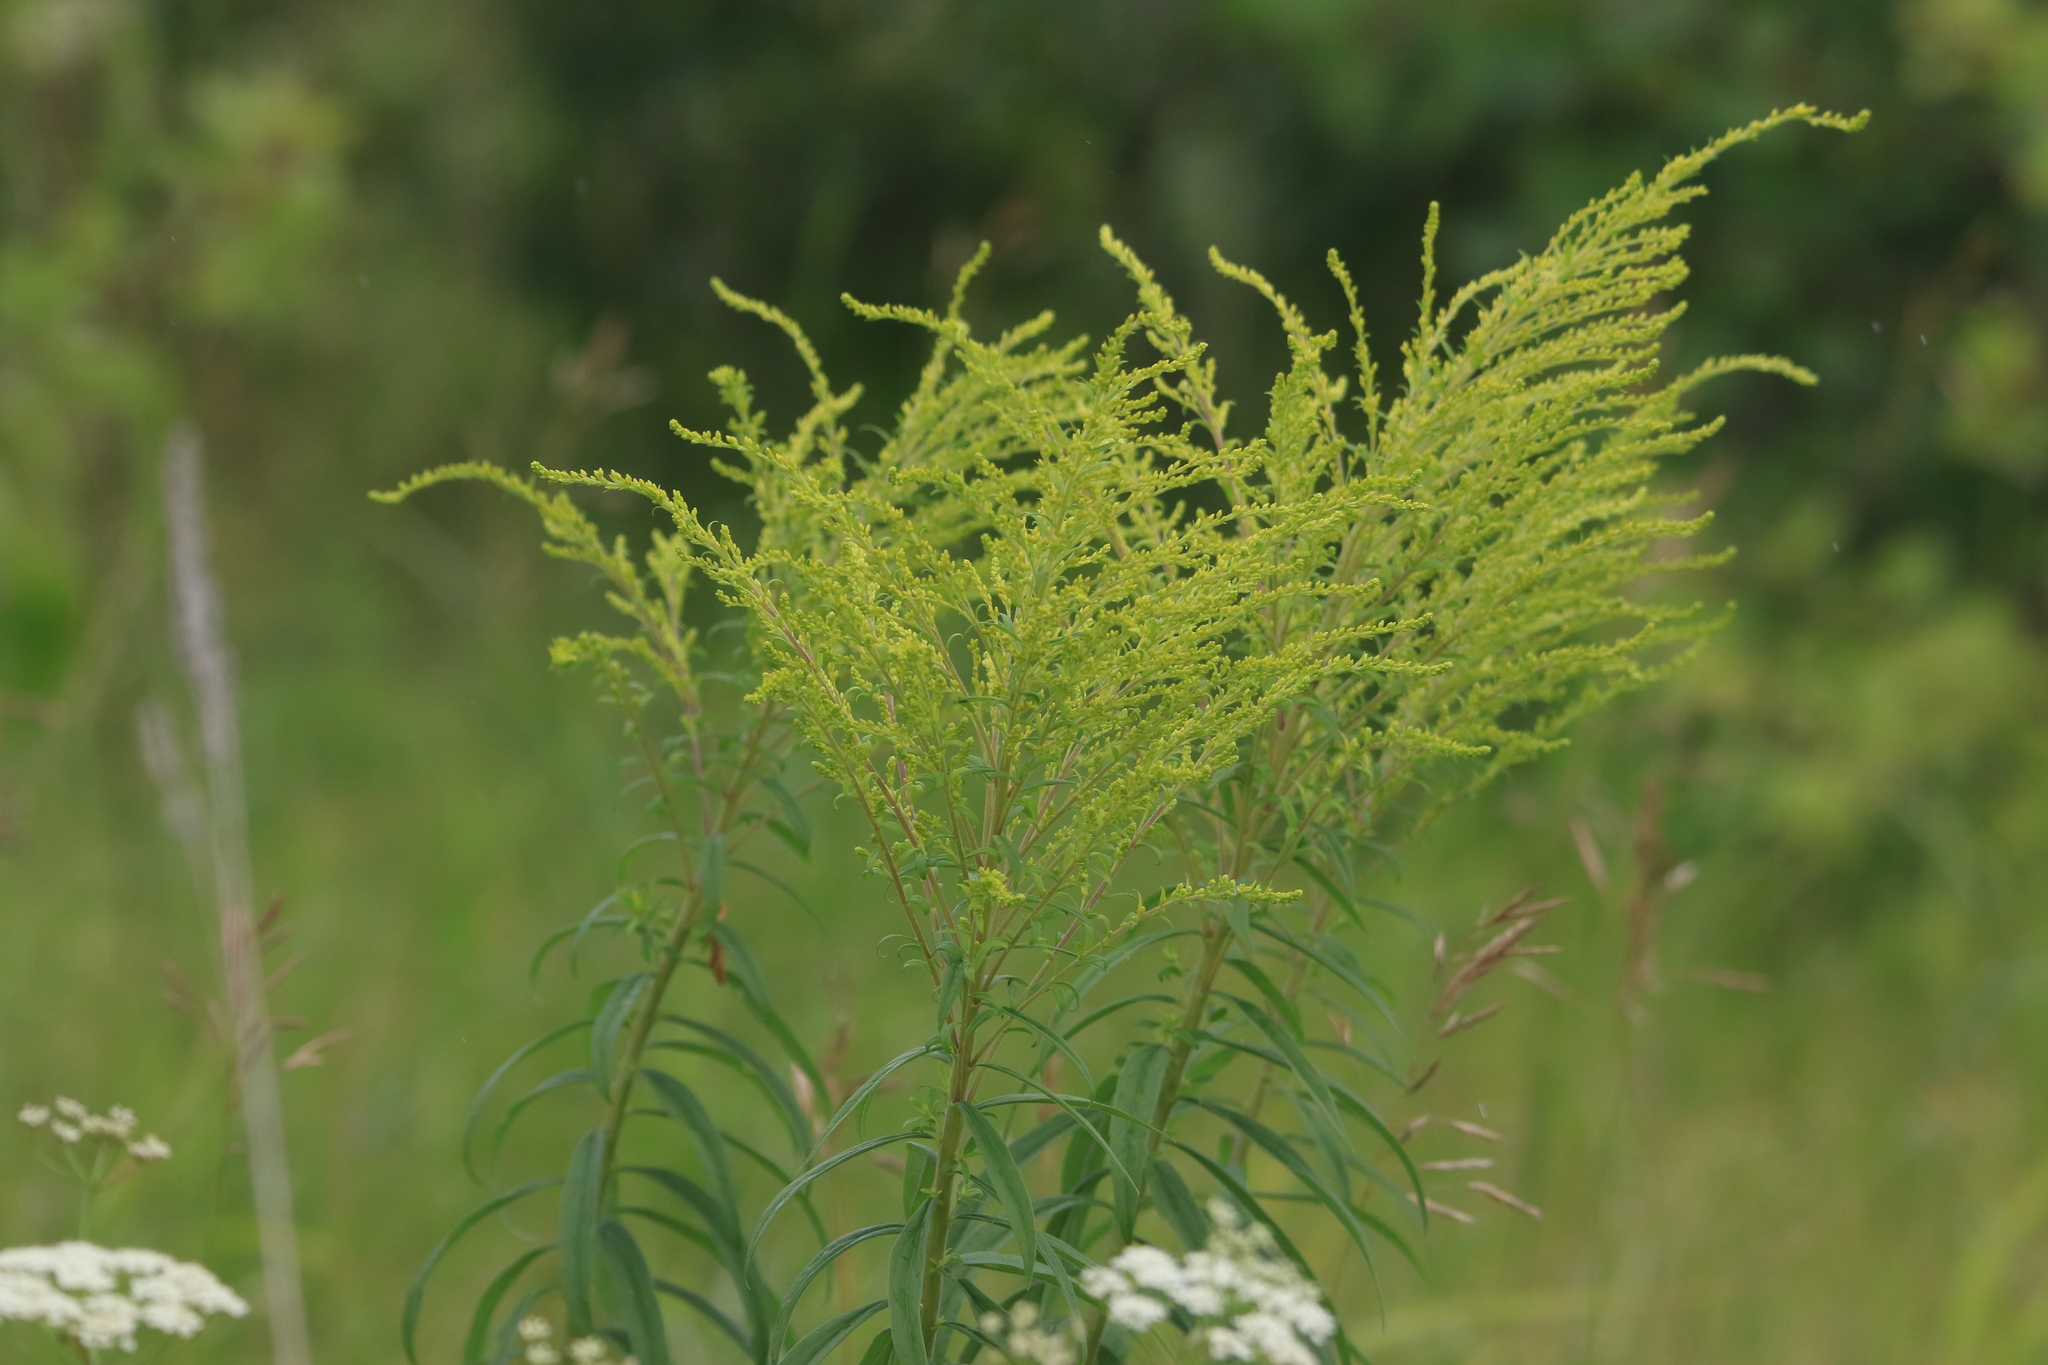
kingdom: Plantae
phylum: Tracheophyta
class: Magnoliopsida
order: Asterales
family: Asteraceae
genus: Solidago
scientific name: Solidago canadensis
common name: Canada goldenrod
